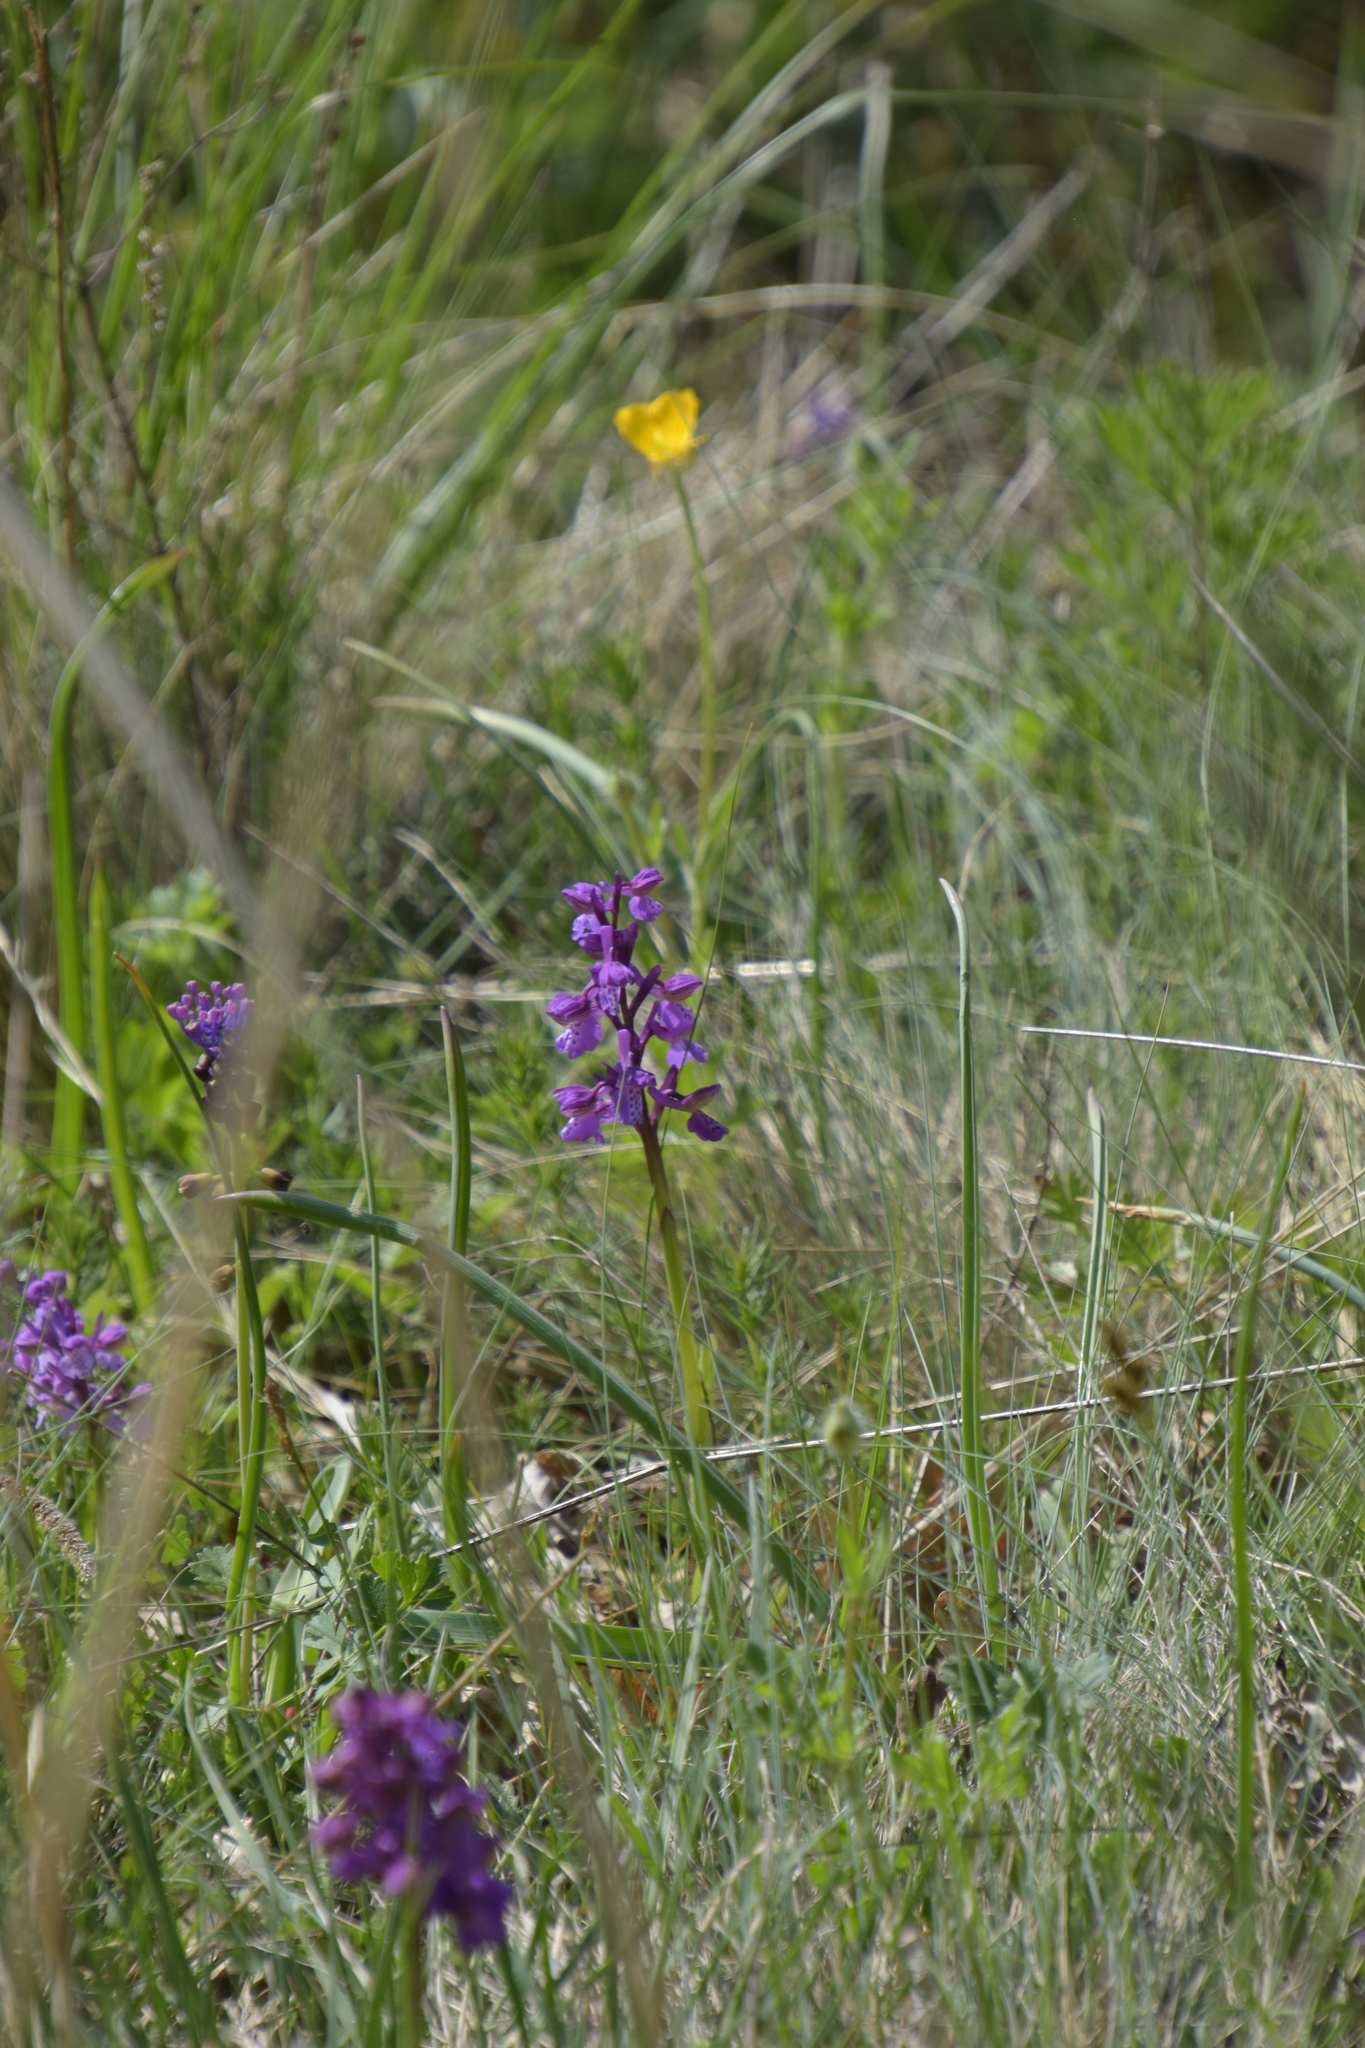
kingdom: Plantae
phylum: Tracheophyta
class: Liliopsida
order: Asparagales
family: Orchidaceae
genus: Anacamptis
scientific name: Anacamptis morio
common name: Green-winged orchid
